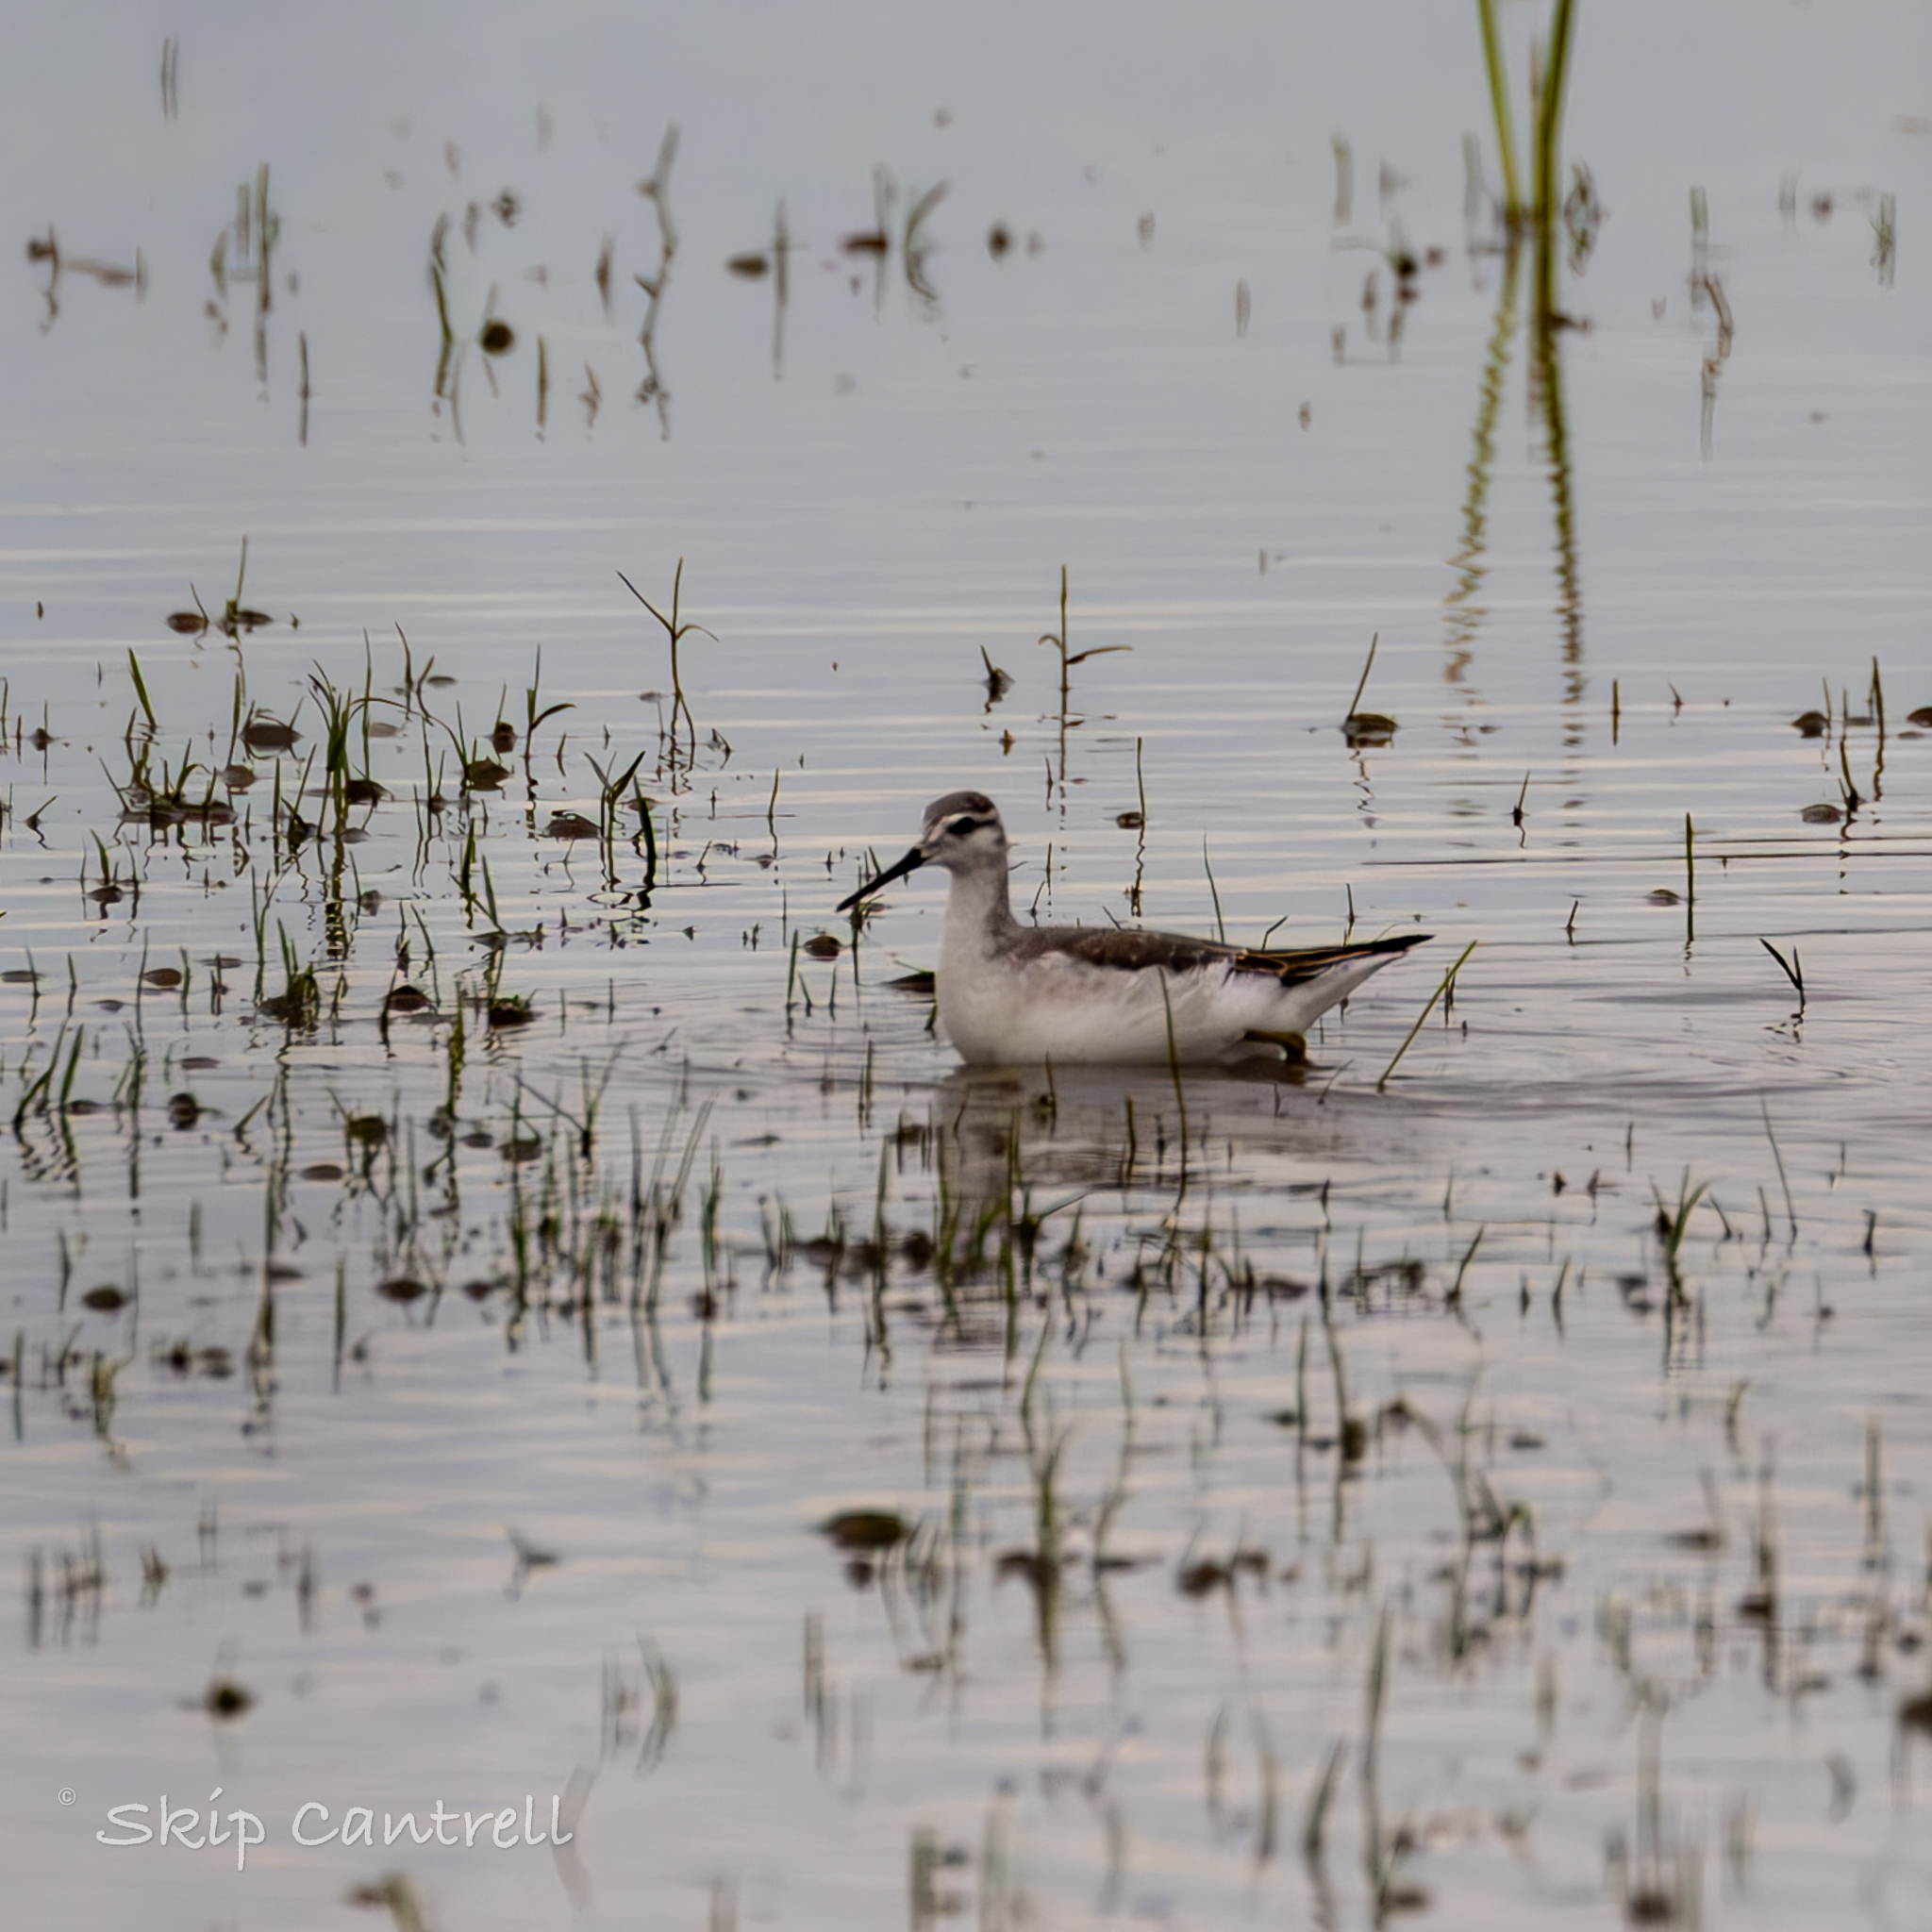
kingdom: Animalia
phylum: Chordata
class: Aves
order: Charadriiformes
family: Scolopacidae
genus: Phalaropus
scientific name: Phalaropus tricolor
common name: Wilson's phalarope
